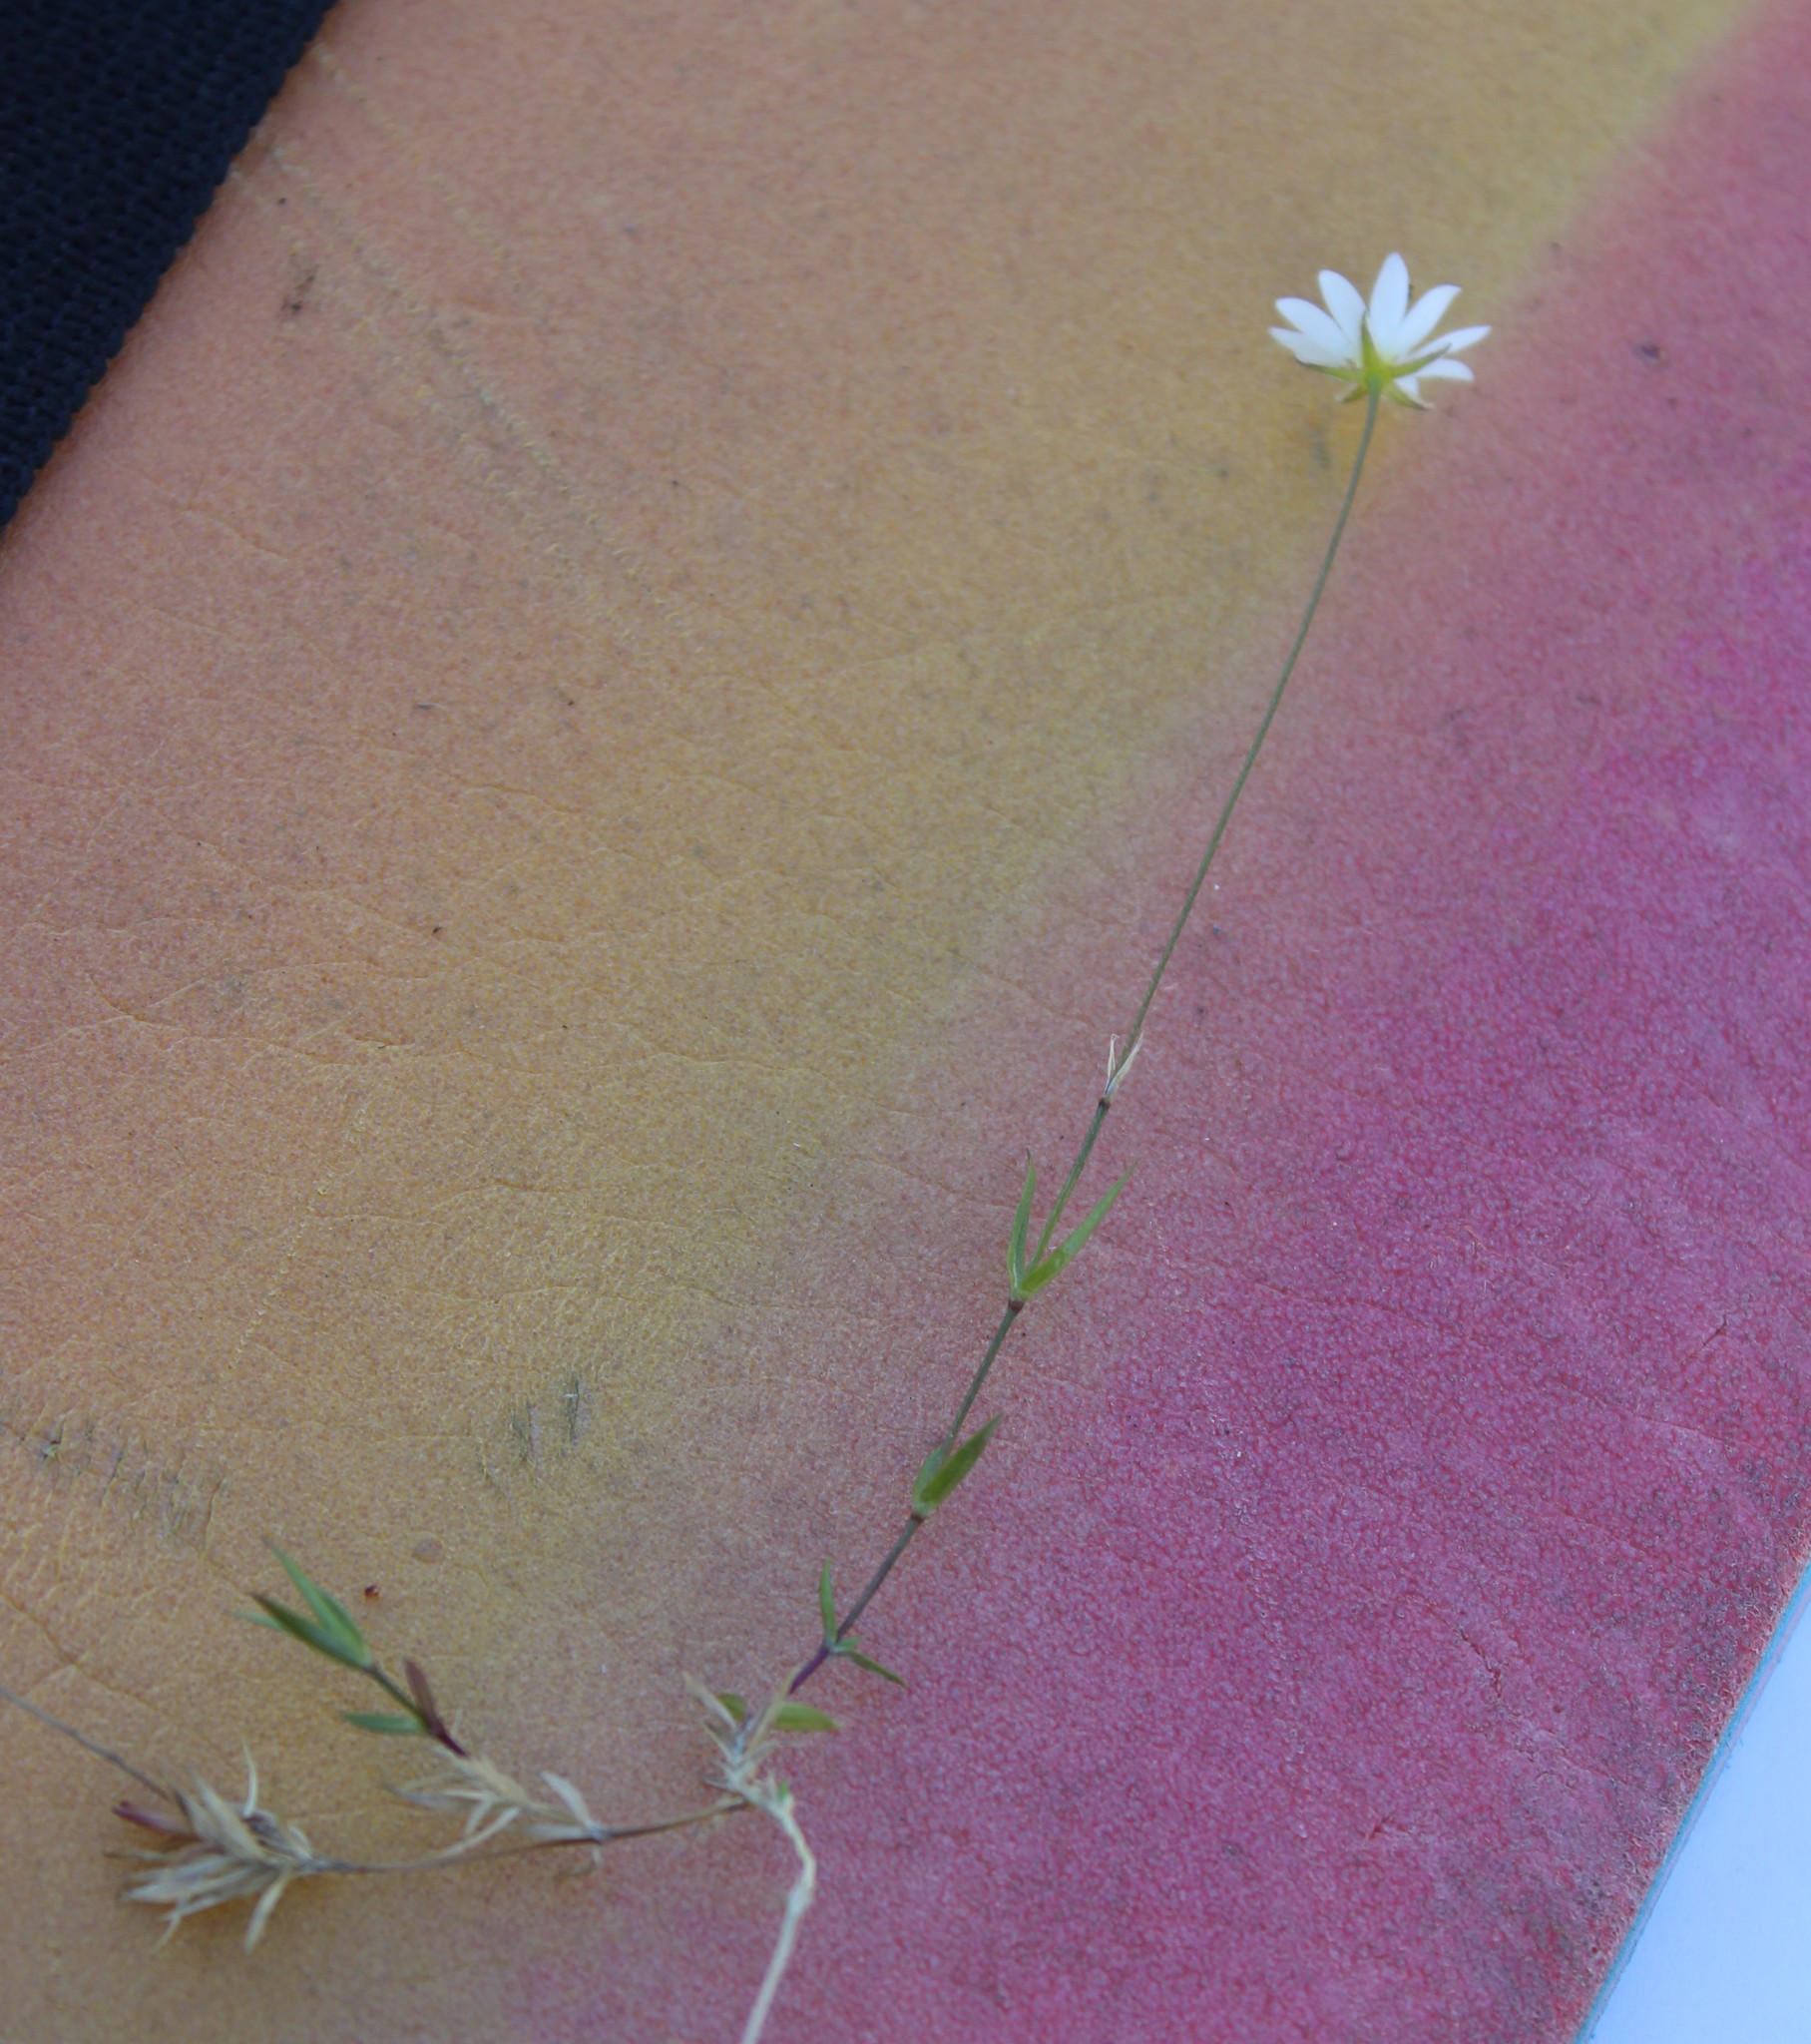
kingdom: Plantae
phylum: Tracheophyta
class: Magnoliopsida
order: Caryophyllales
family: Caryophyllaceae
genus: Stellaria
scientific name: Stellaria peduncularis
